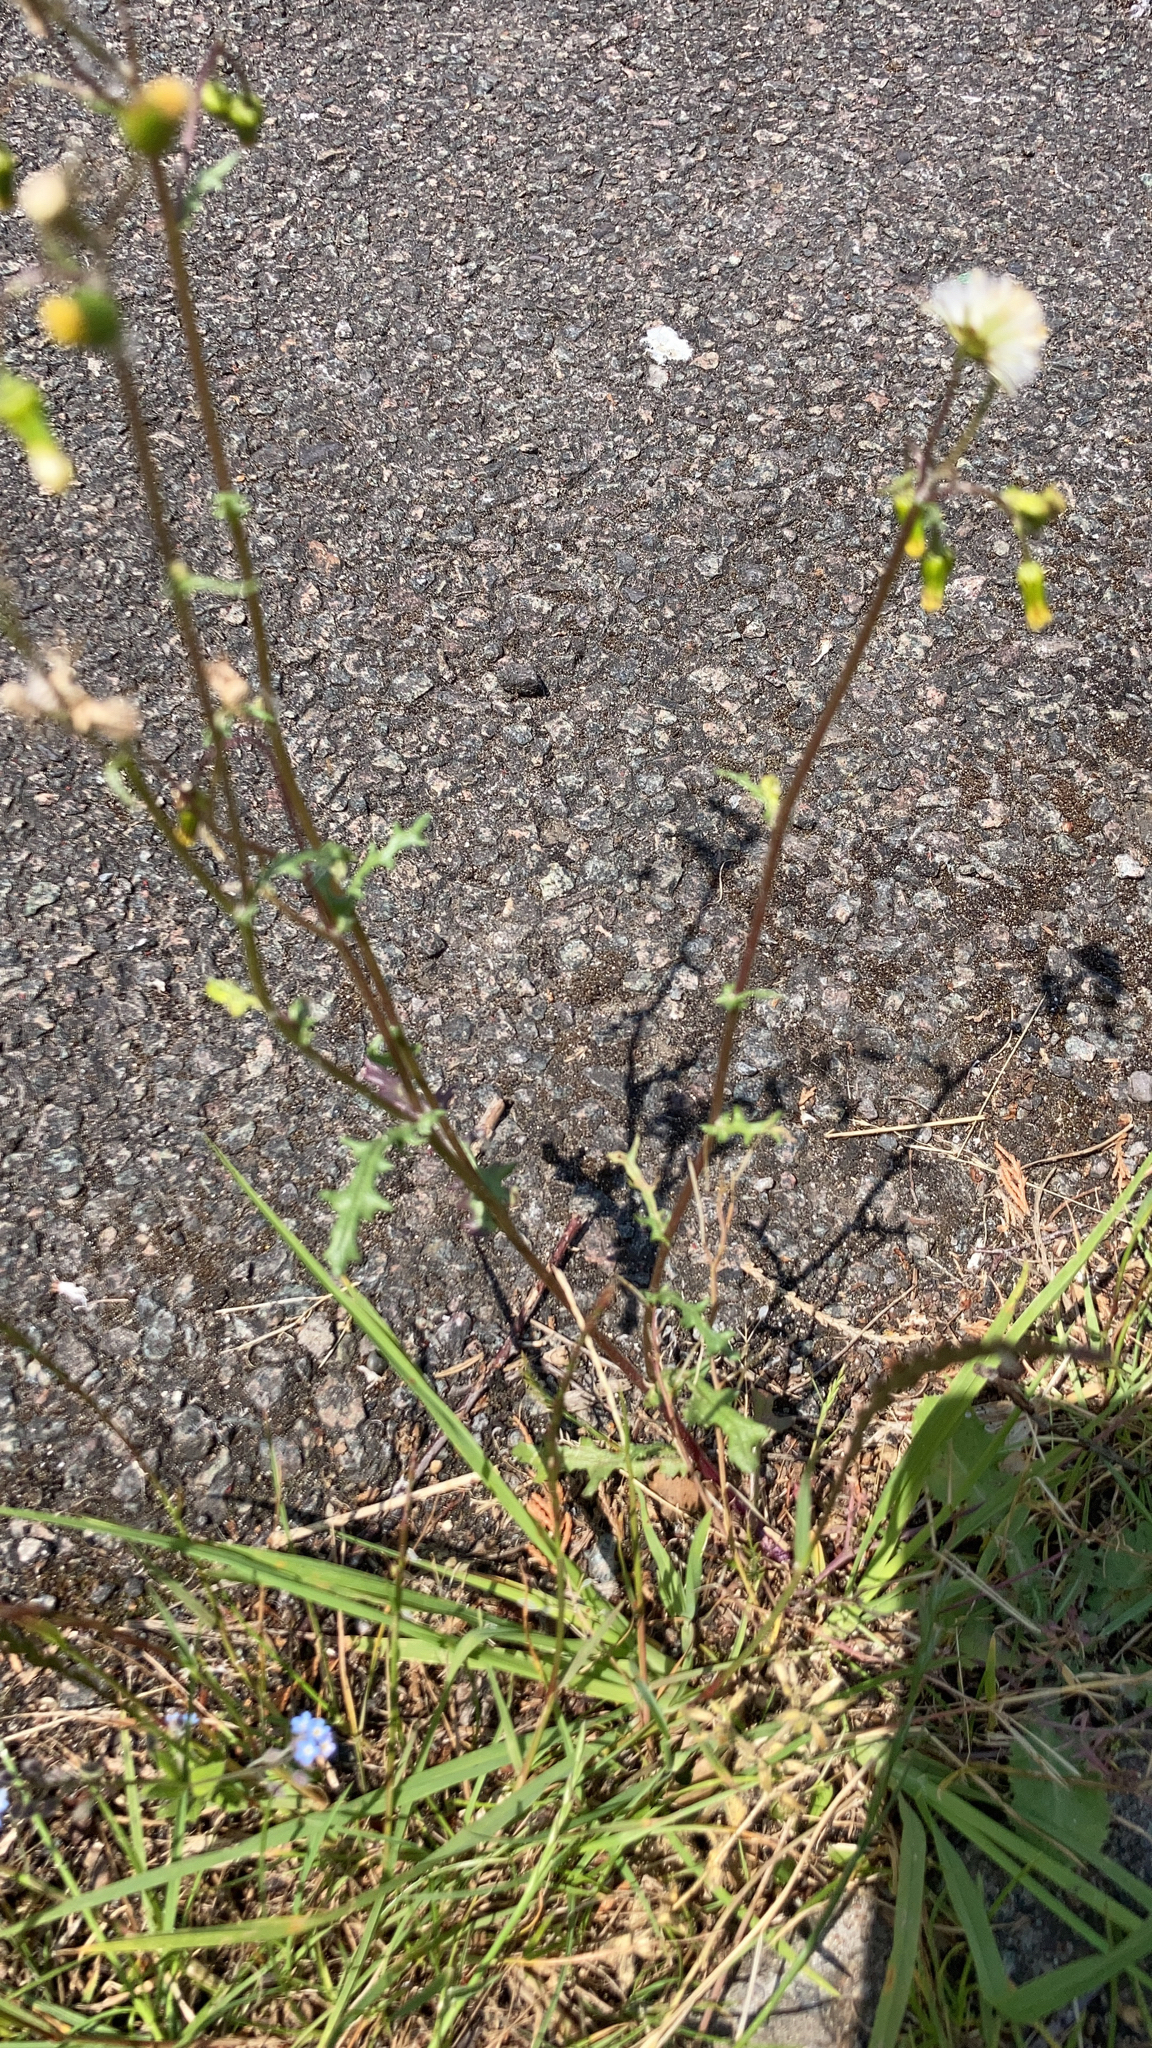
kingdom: Plantae
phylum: Tracheophyta
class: Magnoliopsida
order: Asterales
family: Asteraceae
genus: Senecio
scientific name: Senecio vulgaris
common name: Old-man-in-the-spring
